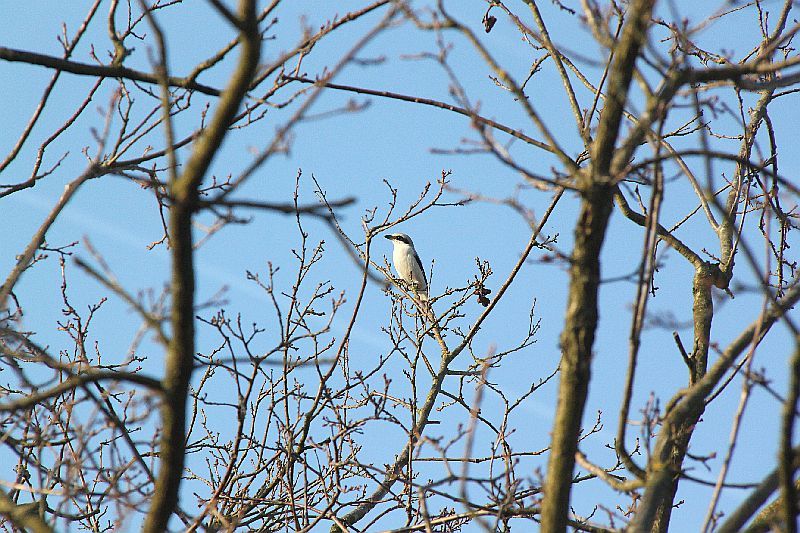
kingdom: Animalia
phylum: Chordata
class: Aves
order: Passeriformes
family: Laniidae
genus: Lanius
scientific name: Lanius excubitor
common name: Great grey shrike
